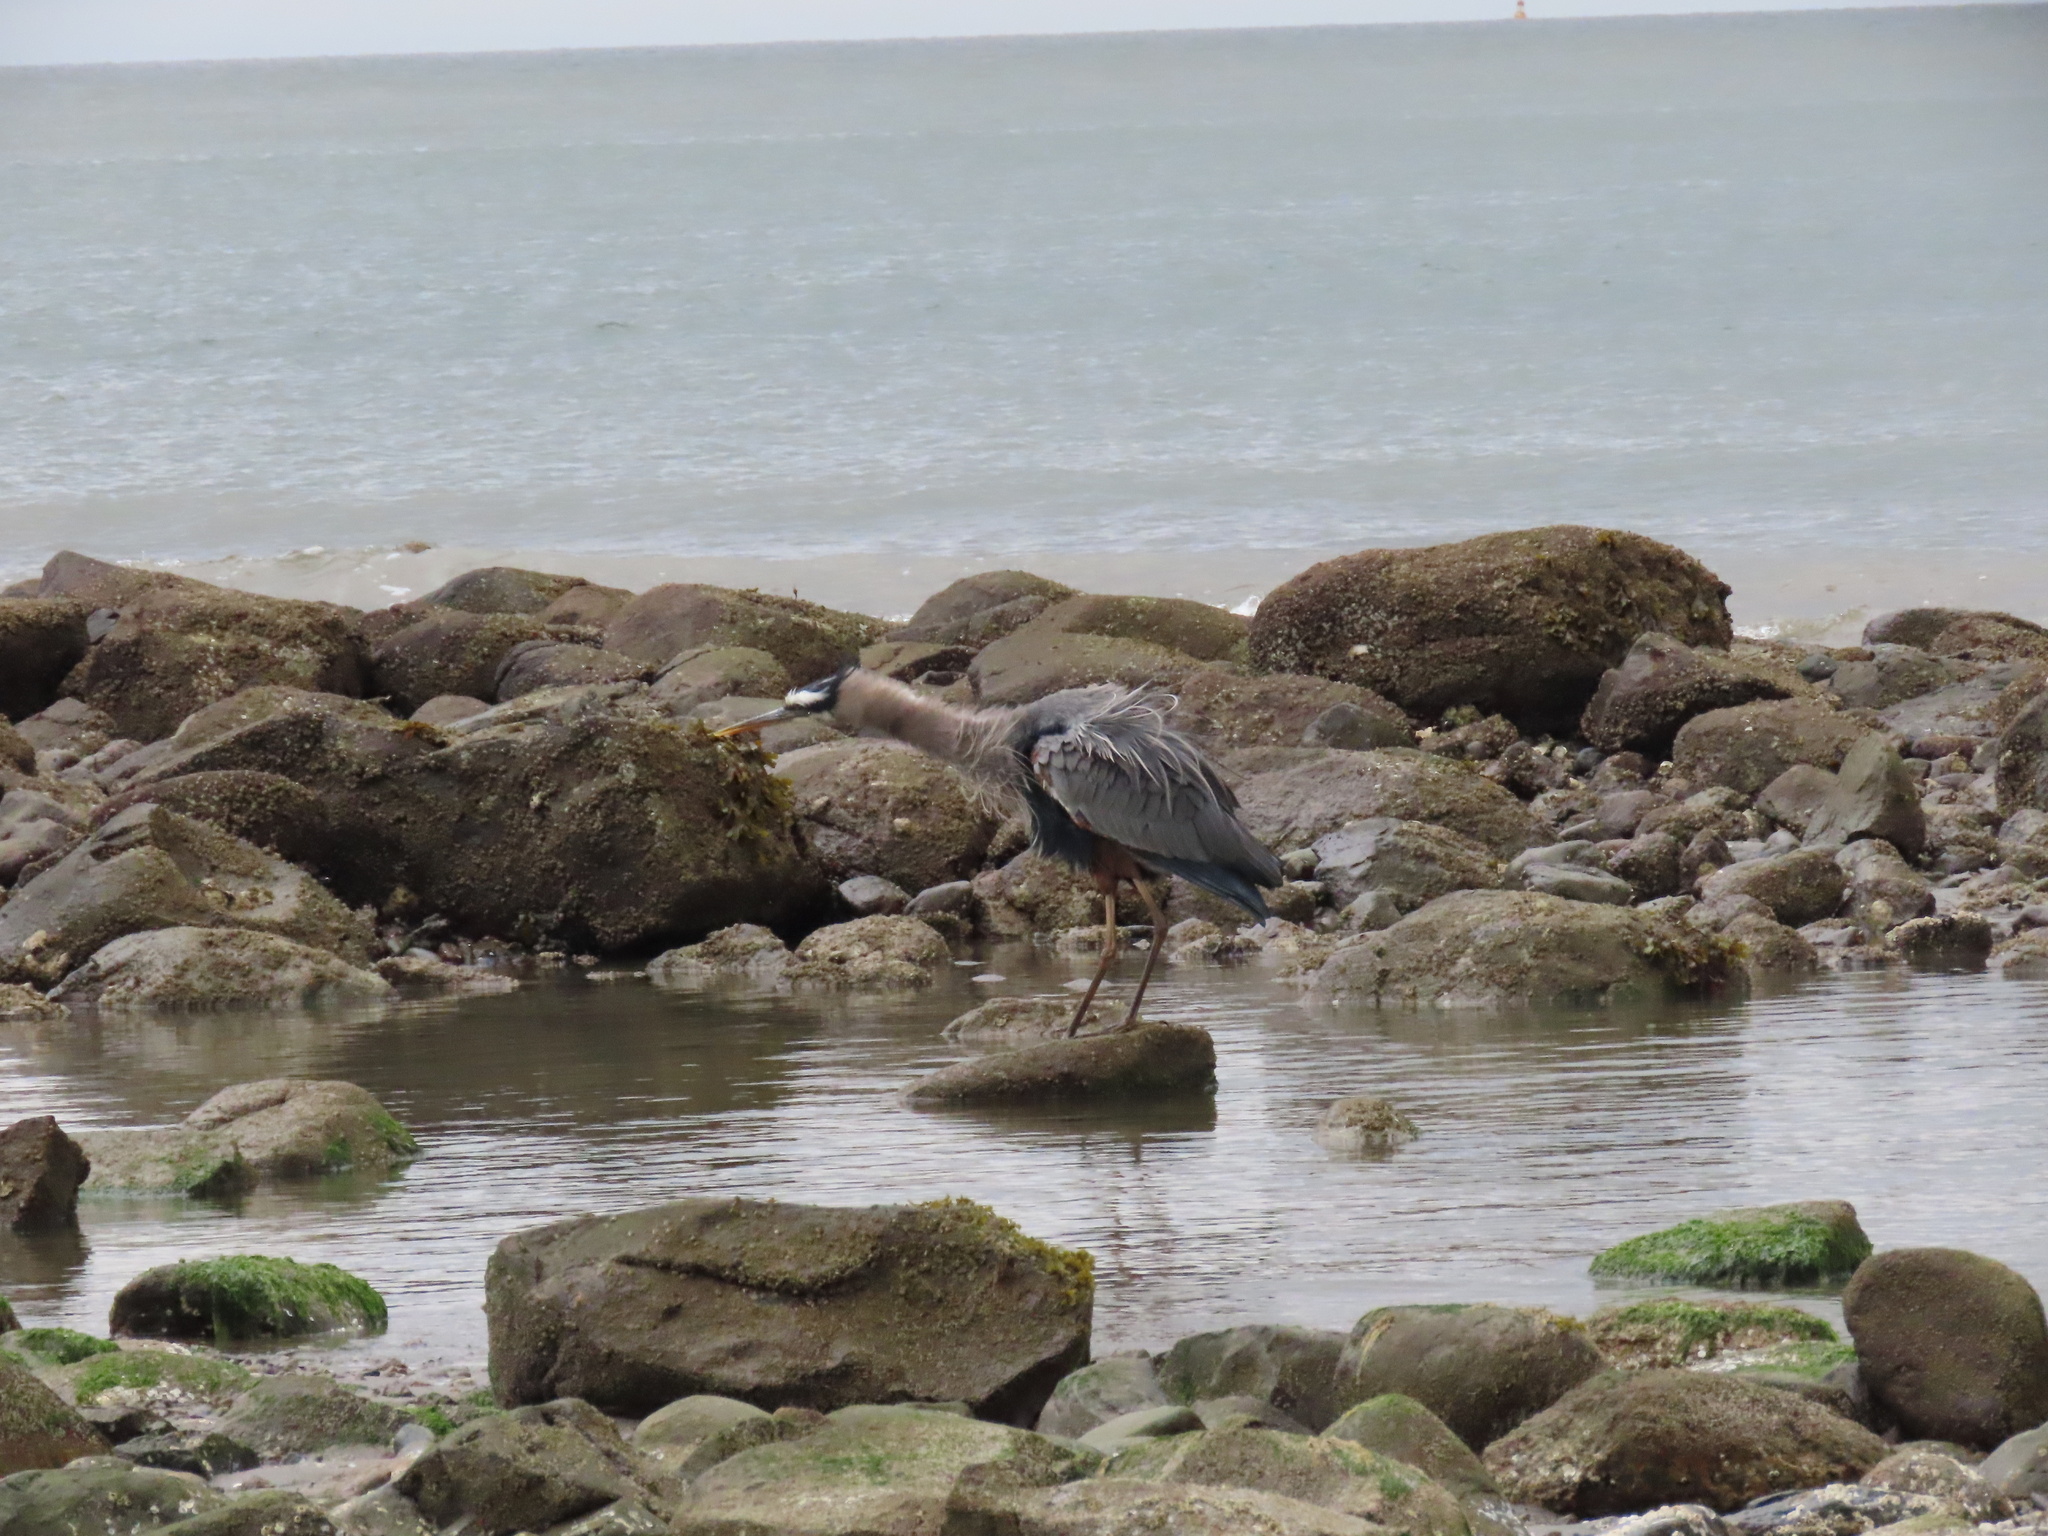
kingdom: Animalia
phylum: Chordata
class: Aves
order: Pelecaniformes
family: Ardeidae
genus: Ardea
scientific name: Ardea herodias
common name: Great blue heron
